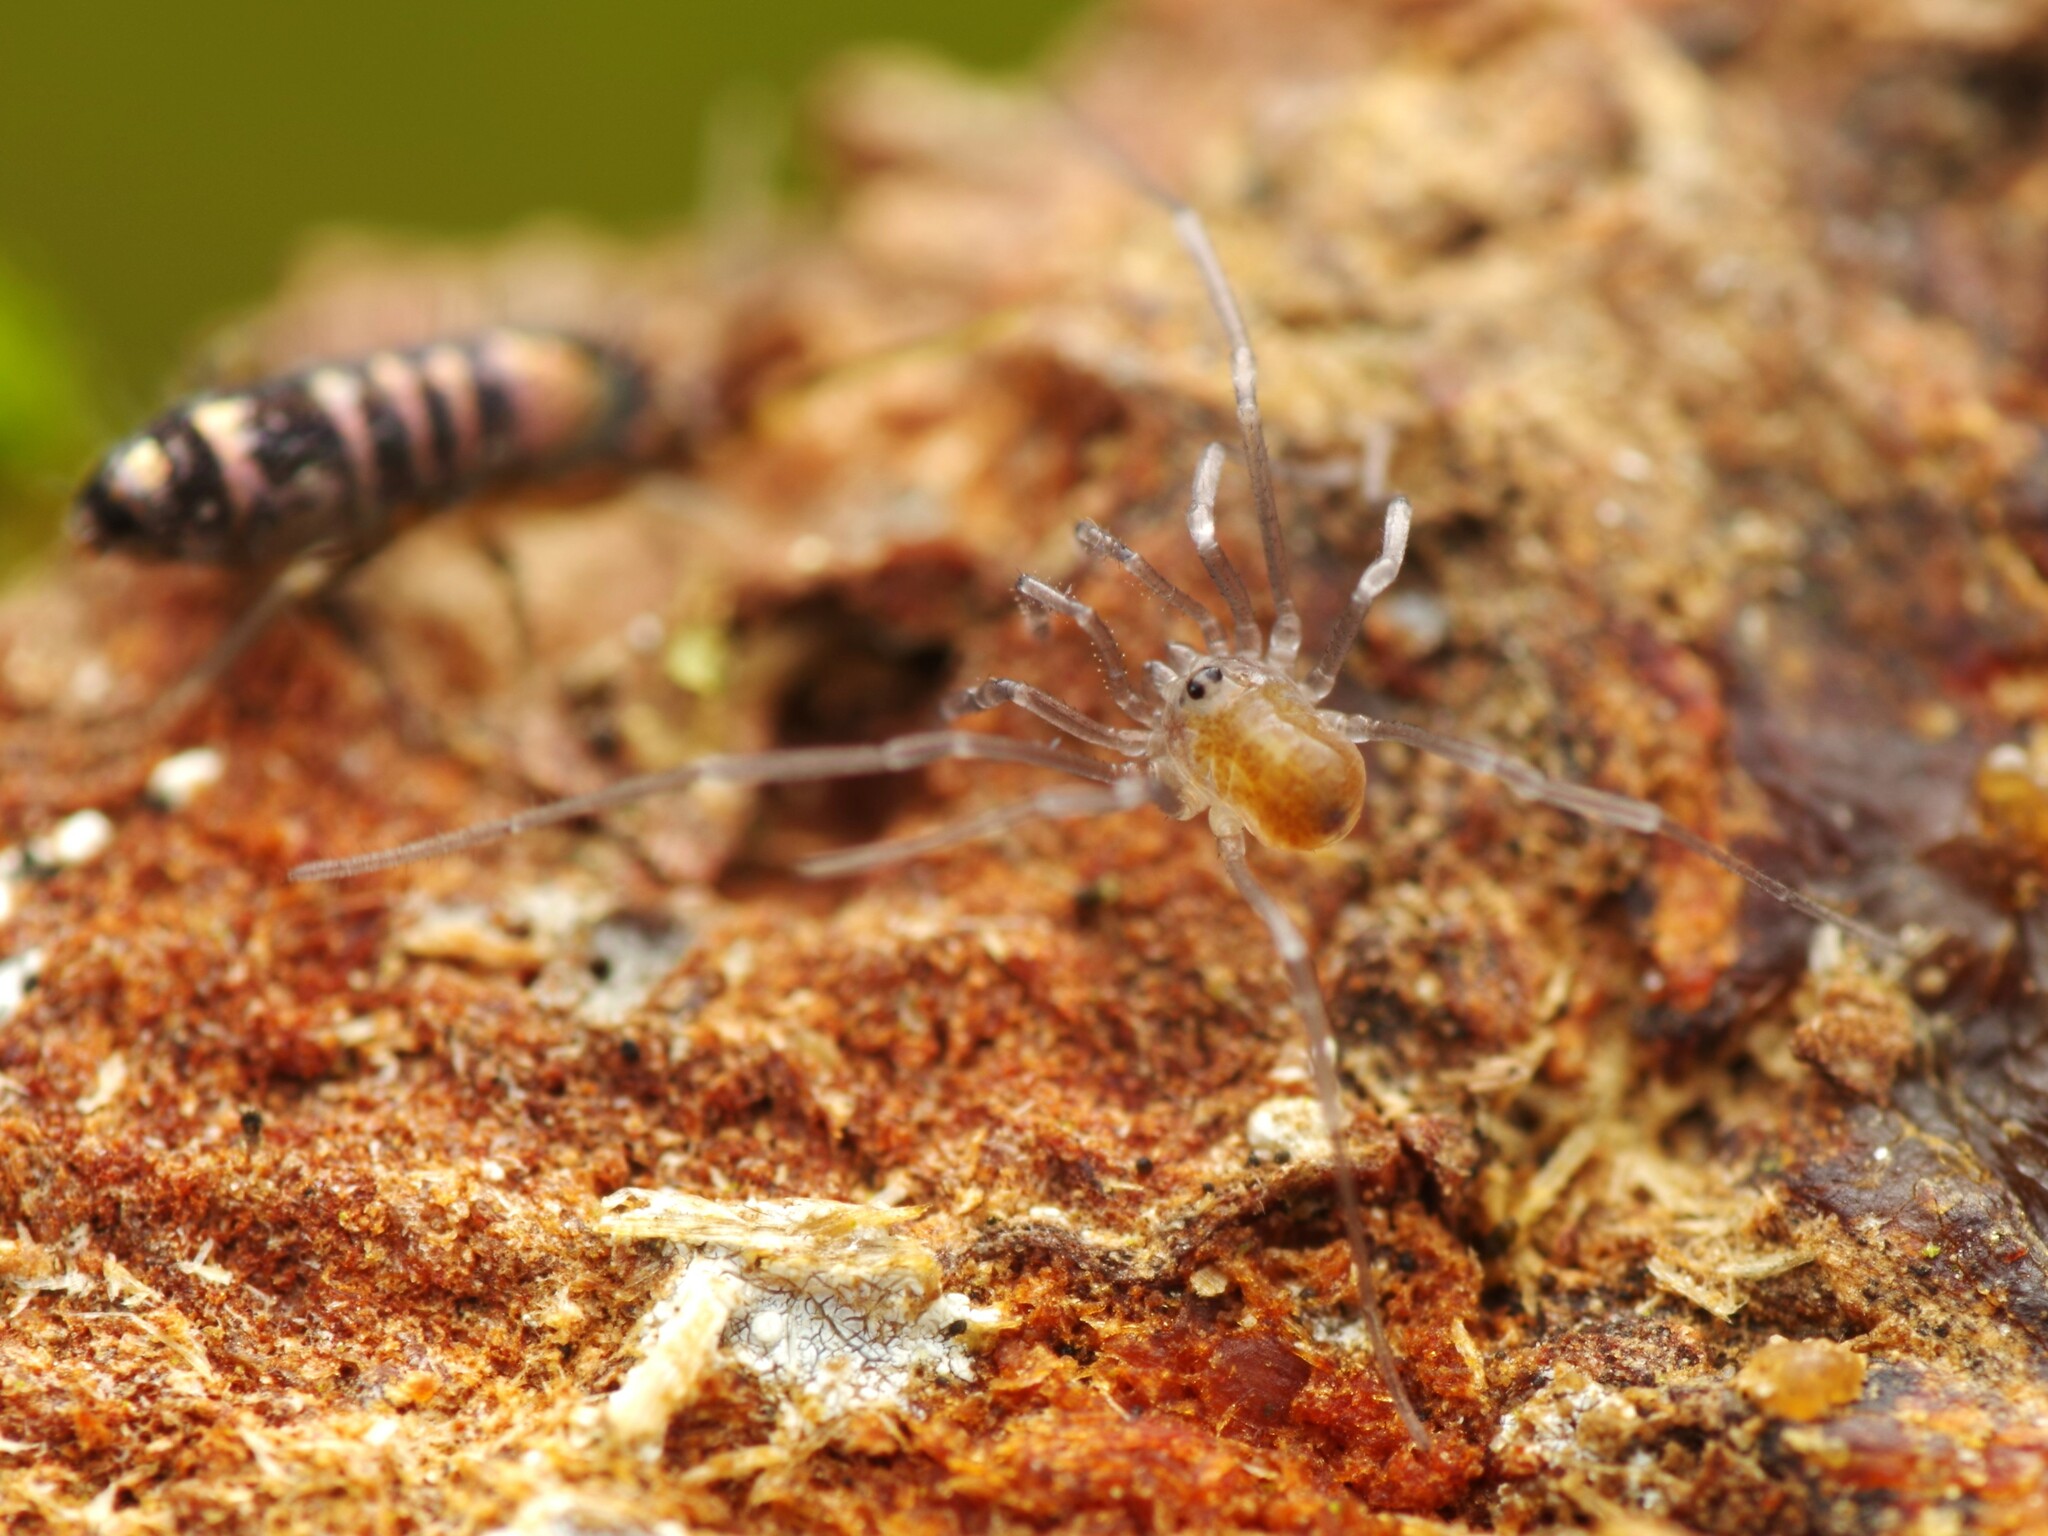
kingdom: Animalia
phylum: Arthropoda
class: Arachnida
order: Opiliones
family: Nemastomatidae
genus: Mitostoma
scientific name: Mitostoma chrysomelas
